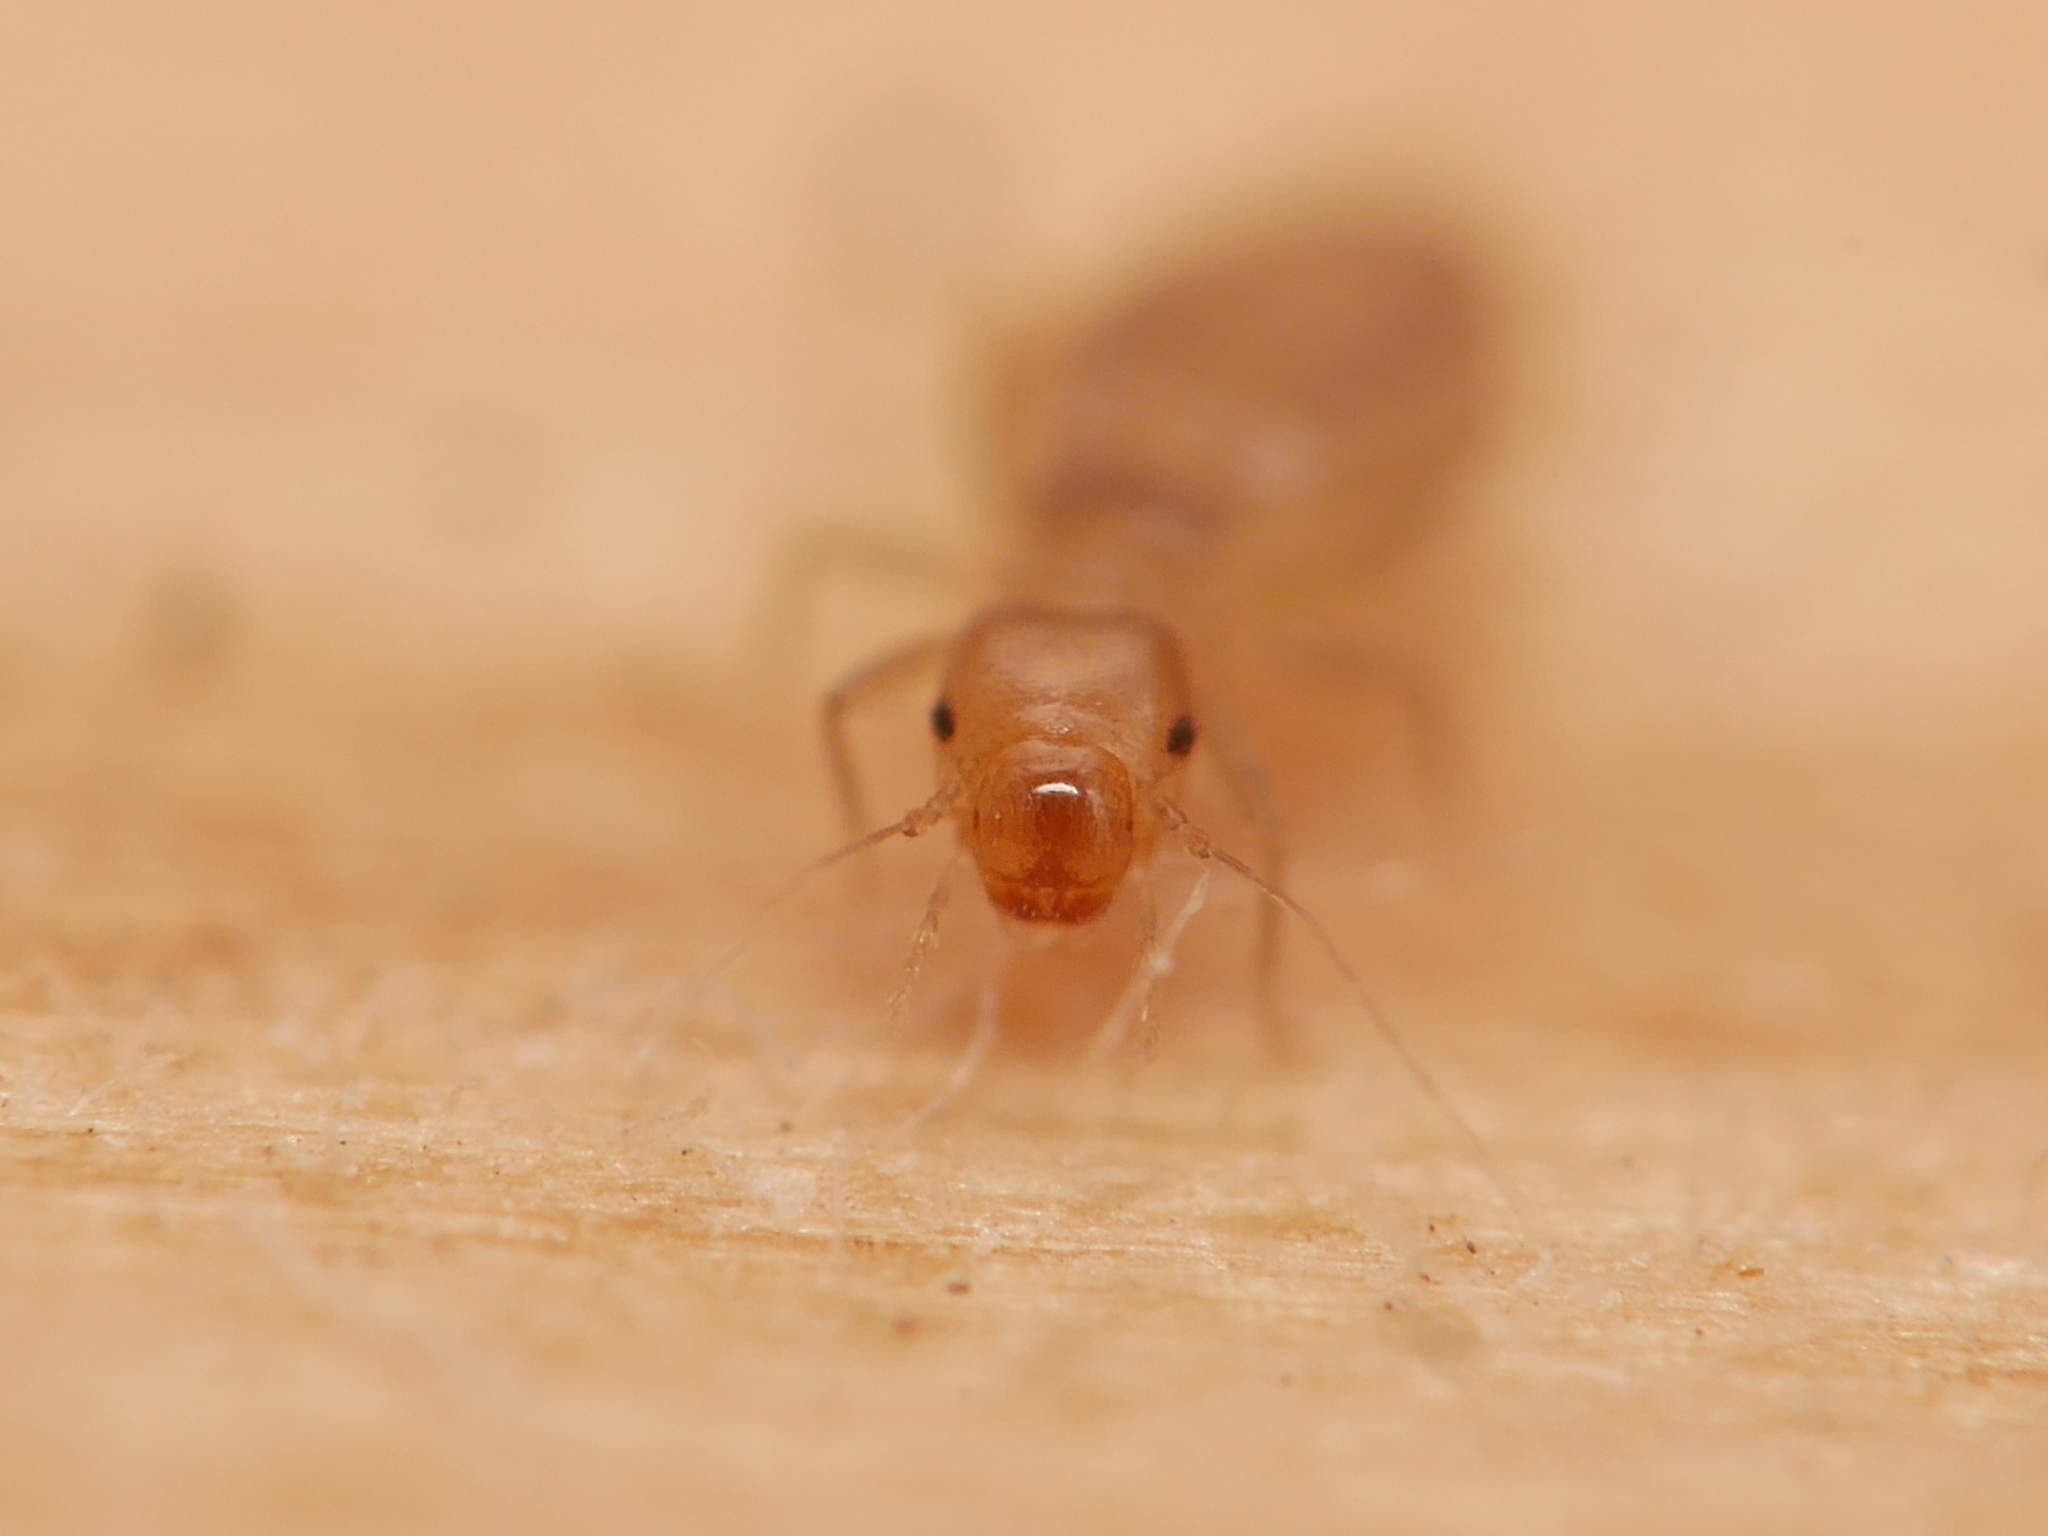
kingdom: Animalia
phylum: Arthropoda
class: Insecta
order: Psocodea
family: Liposcelididae
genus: Liposcelis
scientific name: Liposcelis bostrychophila
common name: Bark lice
